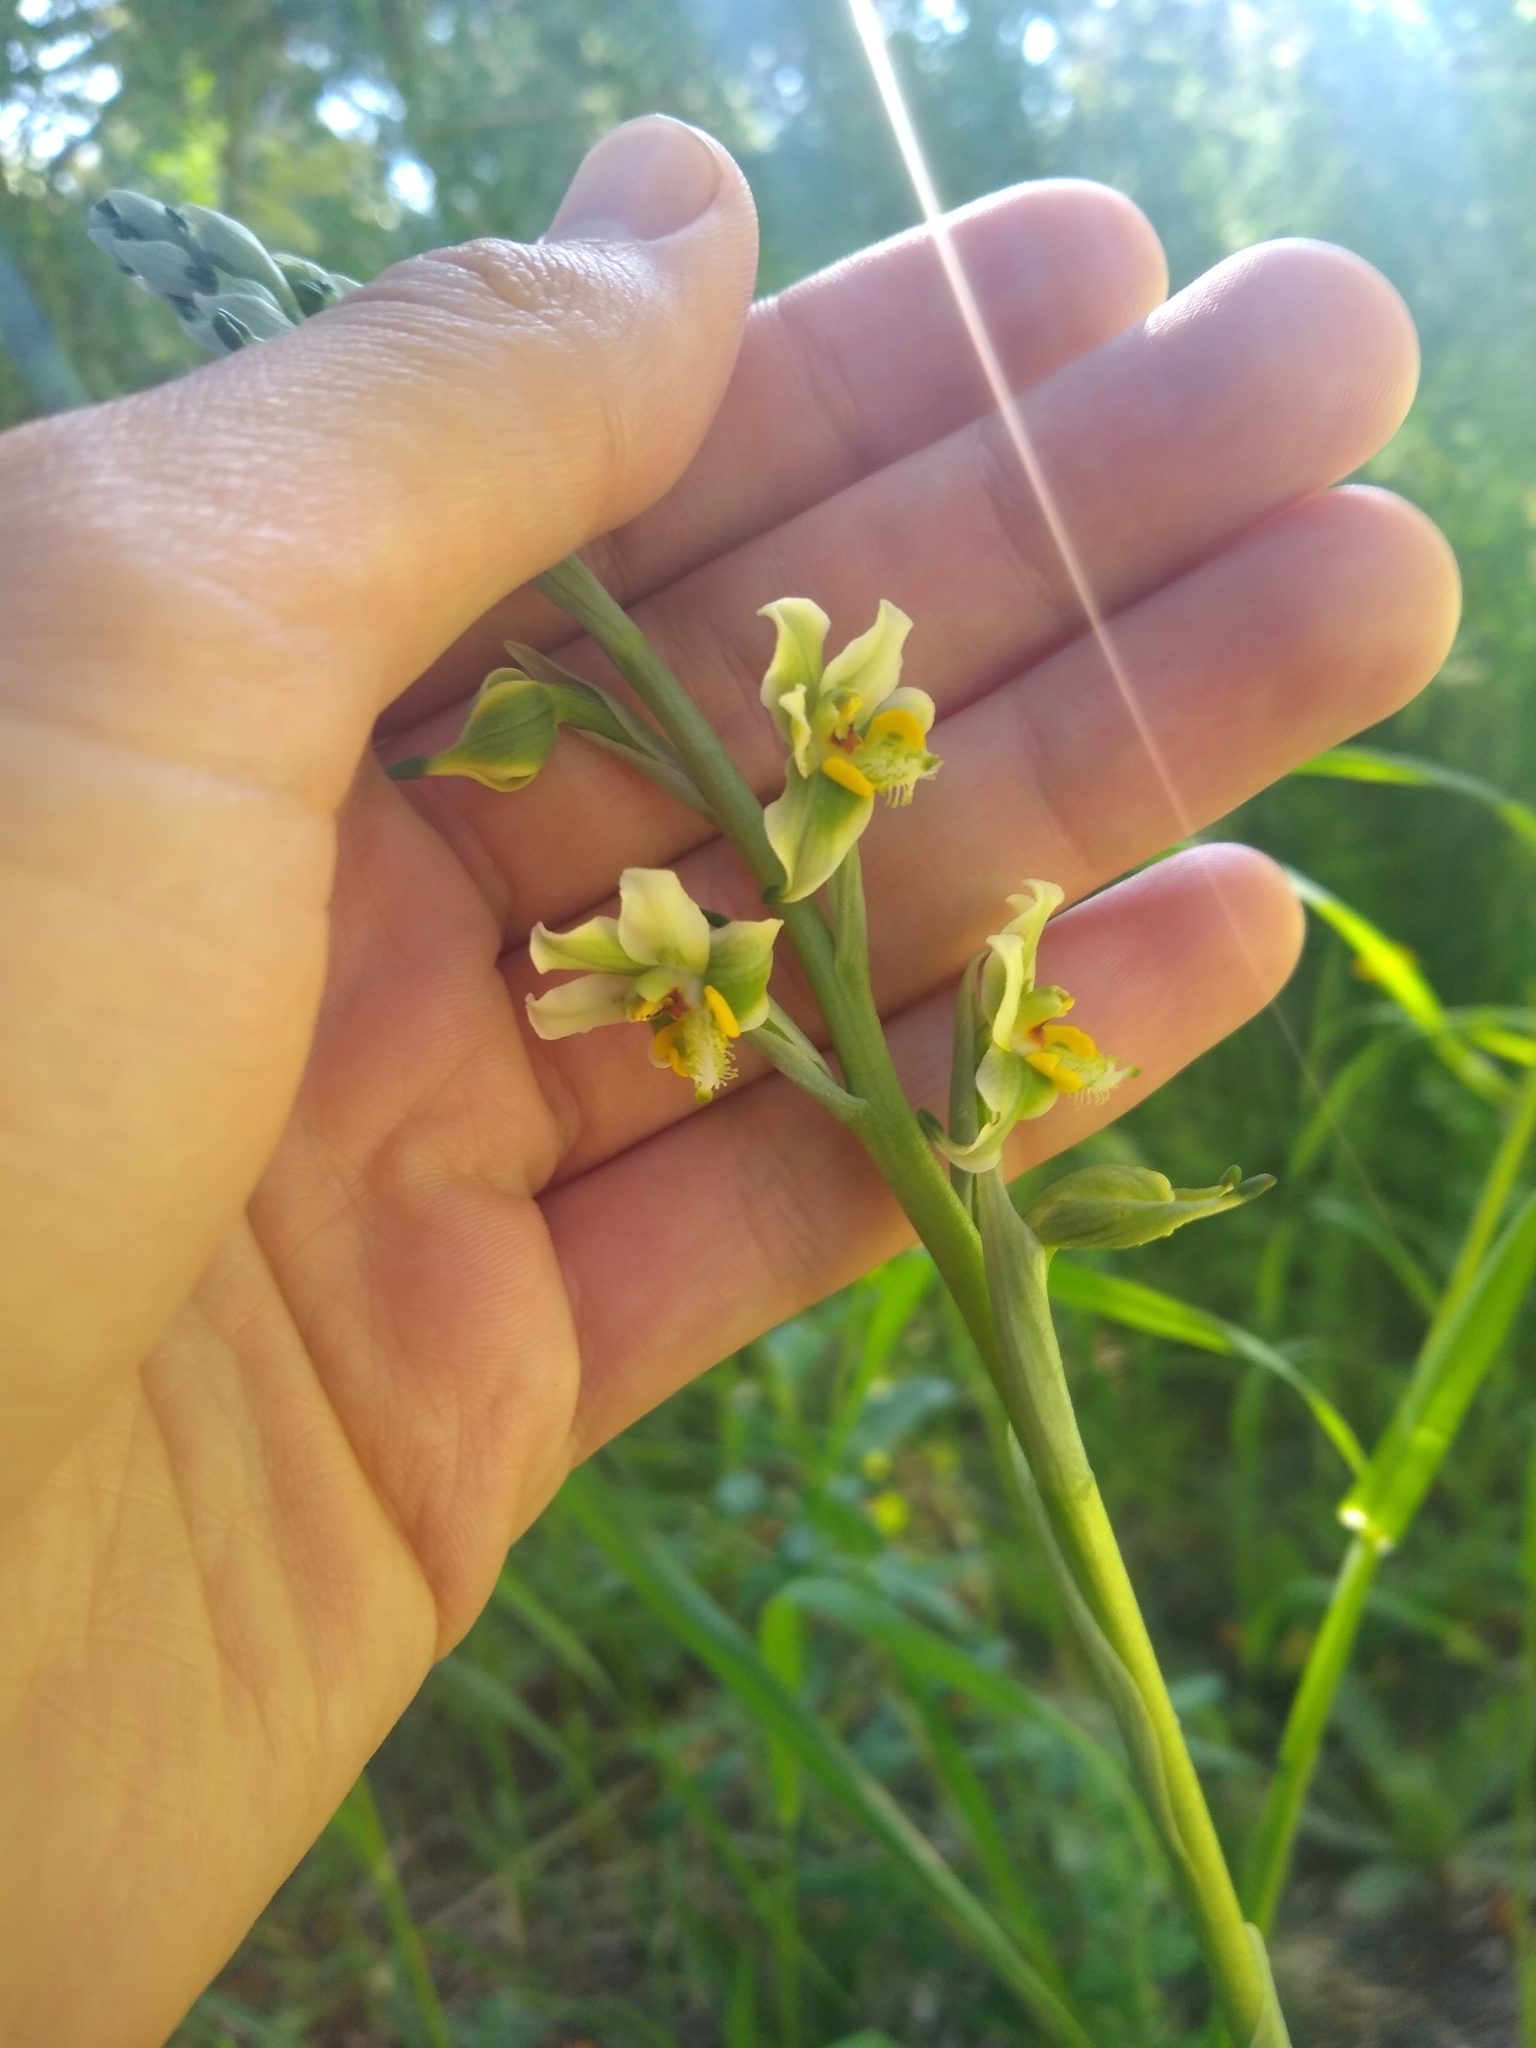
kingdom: Plantae
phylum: Tracheophyta
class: Liliopsida
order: Asparagales
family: Orchidaceae
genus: Gavilea
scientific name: Gavilea glandulifera
